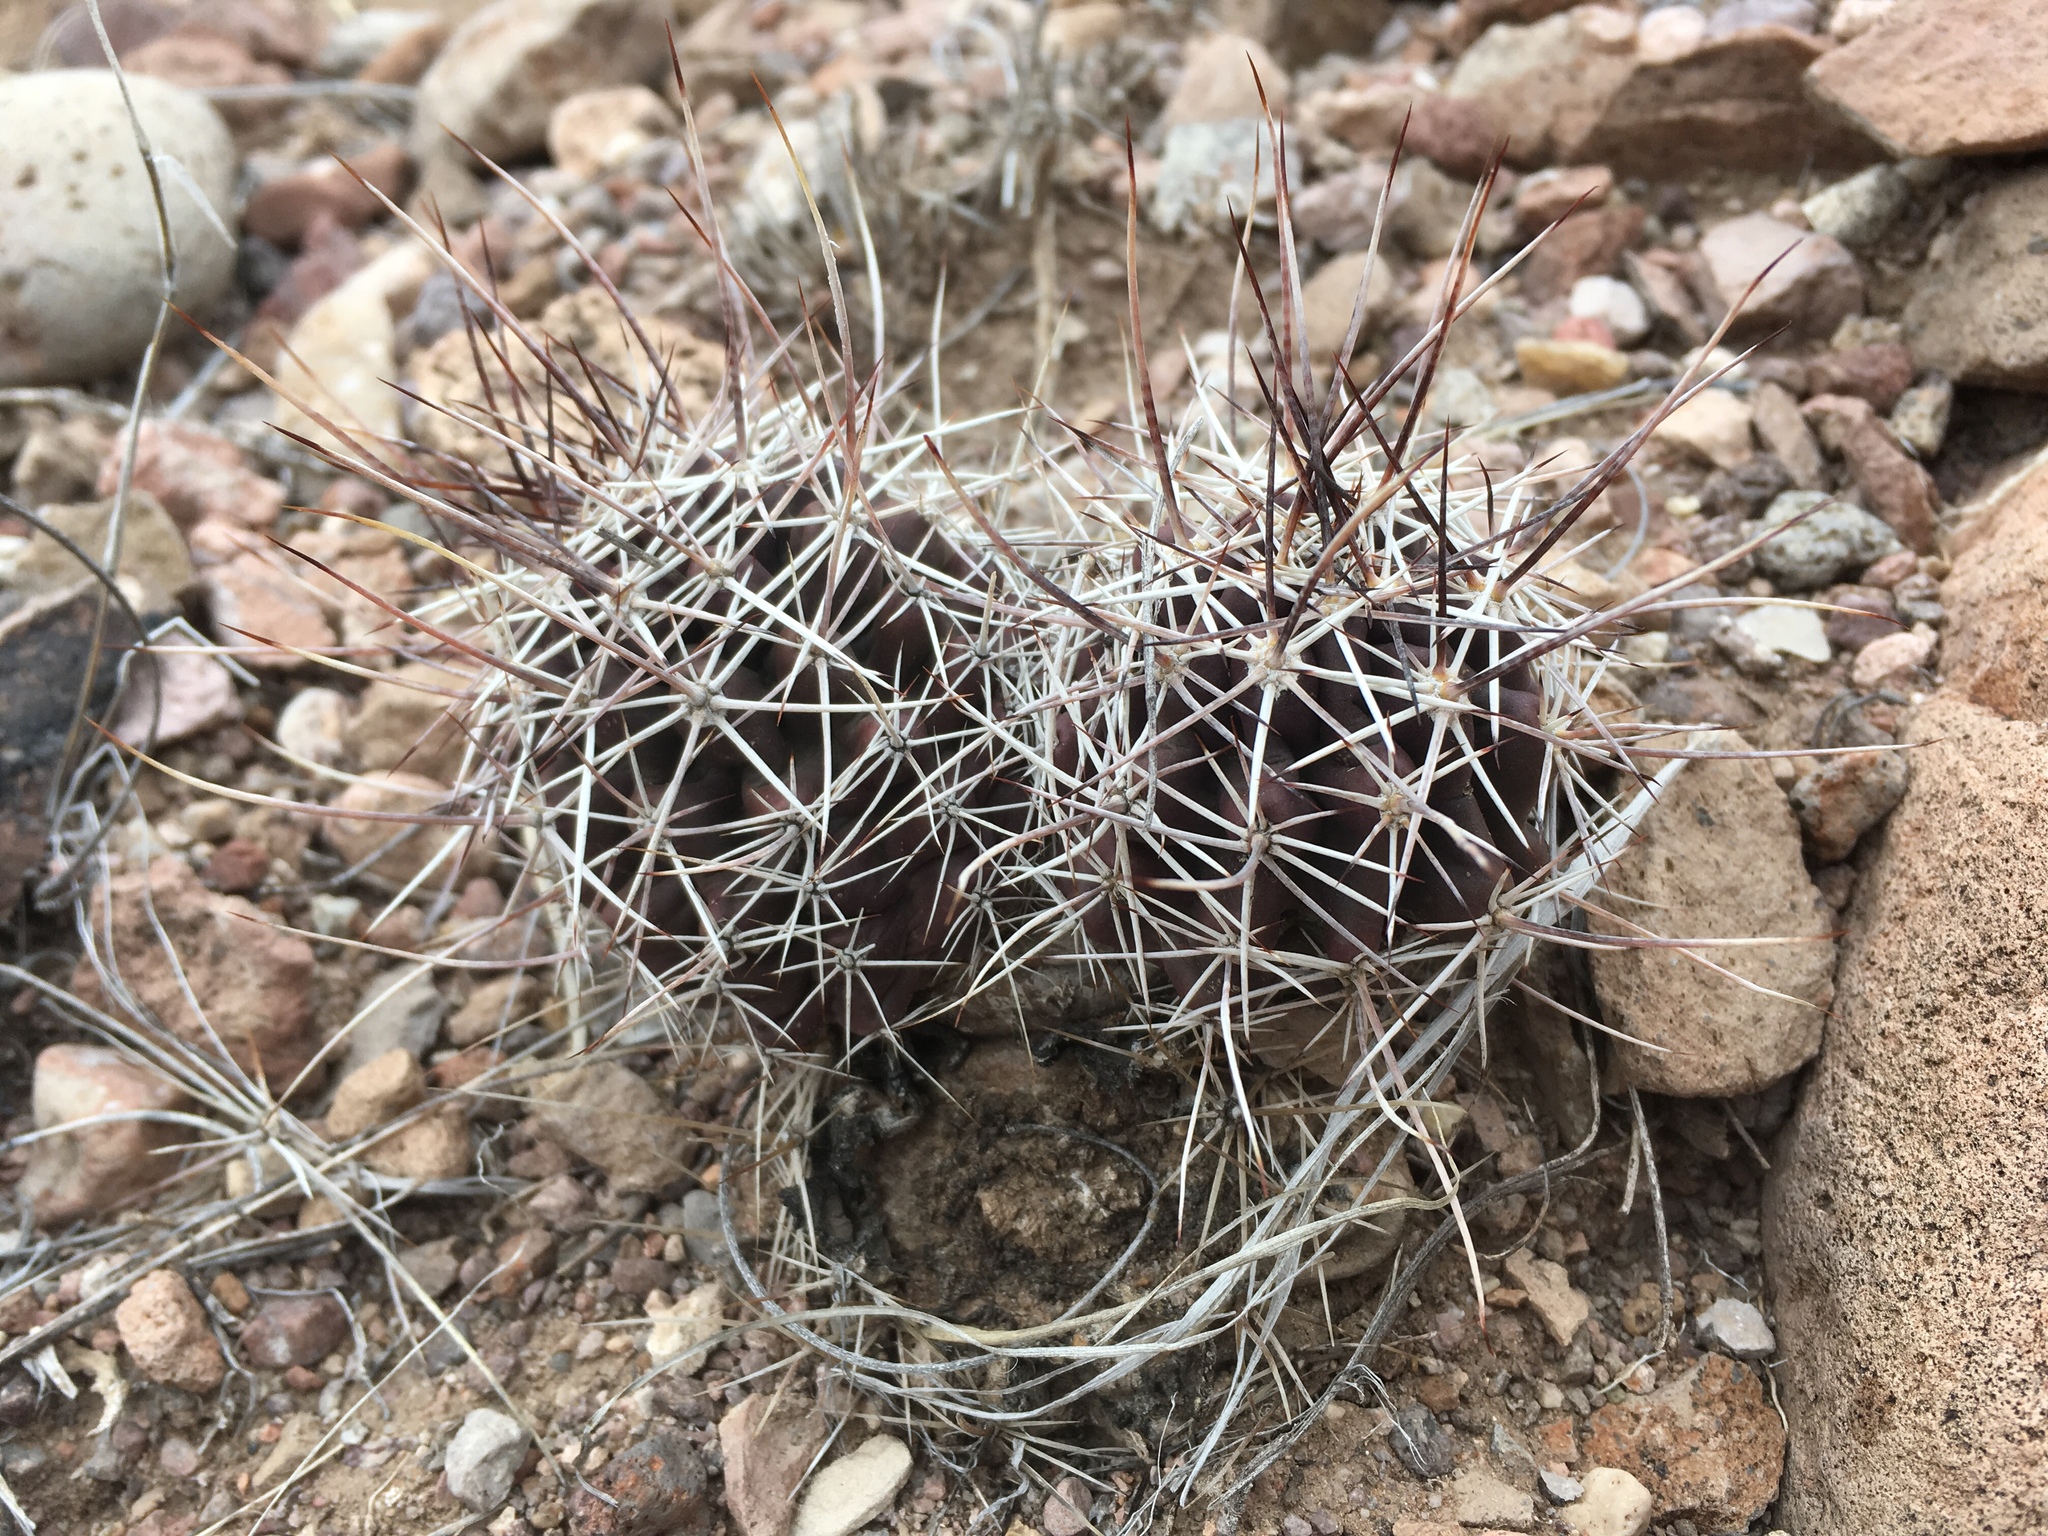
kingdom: Plantae
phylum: Tracheophyta
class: Magnoliopsida
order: Caryophyllales
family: Cactaceae
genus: Echinocereus
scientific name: Echinocereus fendleri
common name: Fendler's hedgehog cactus
